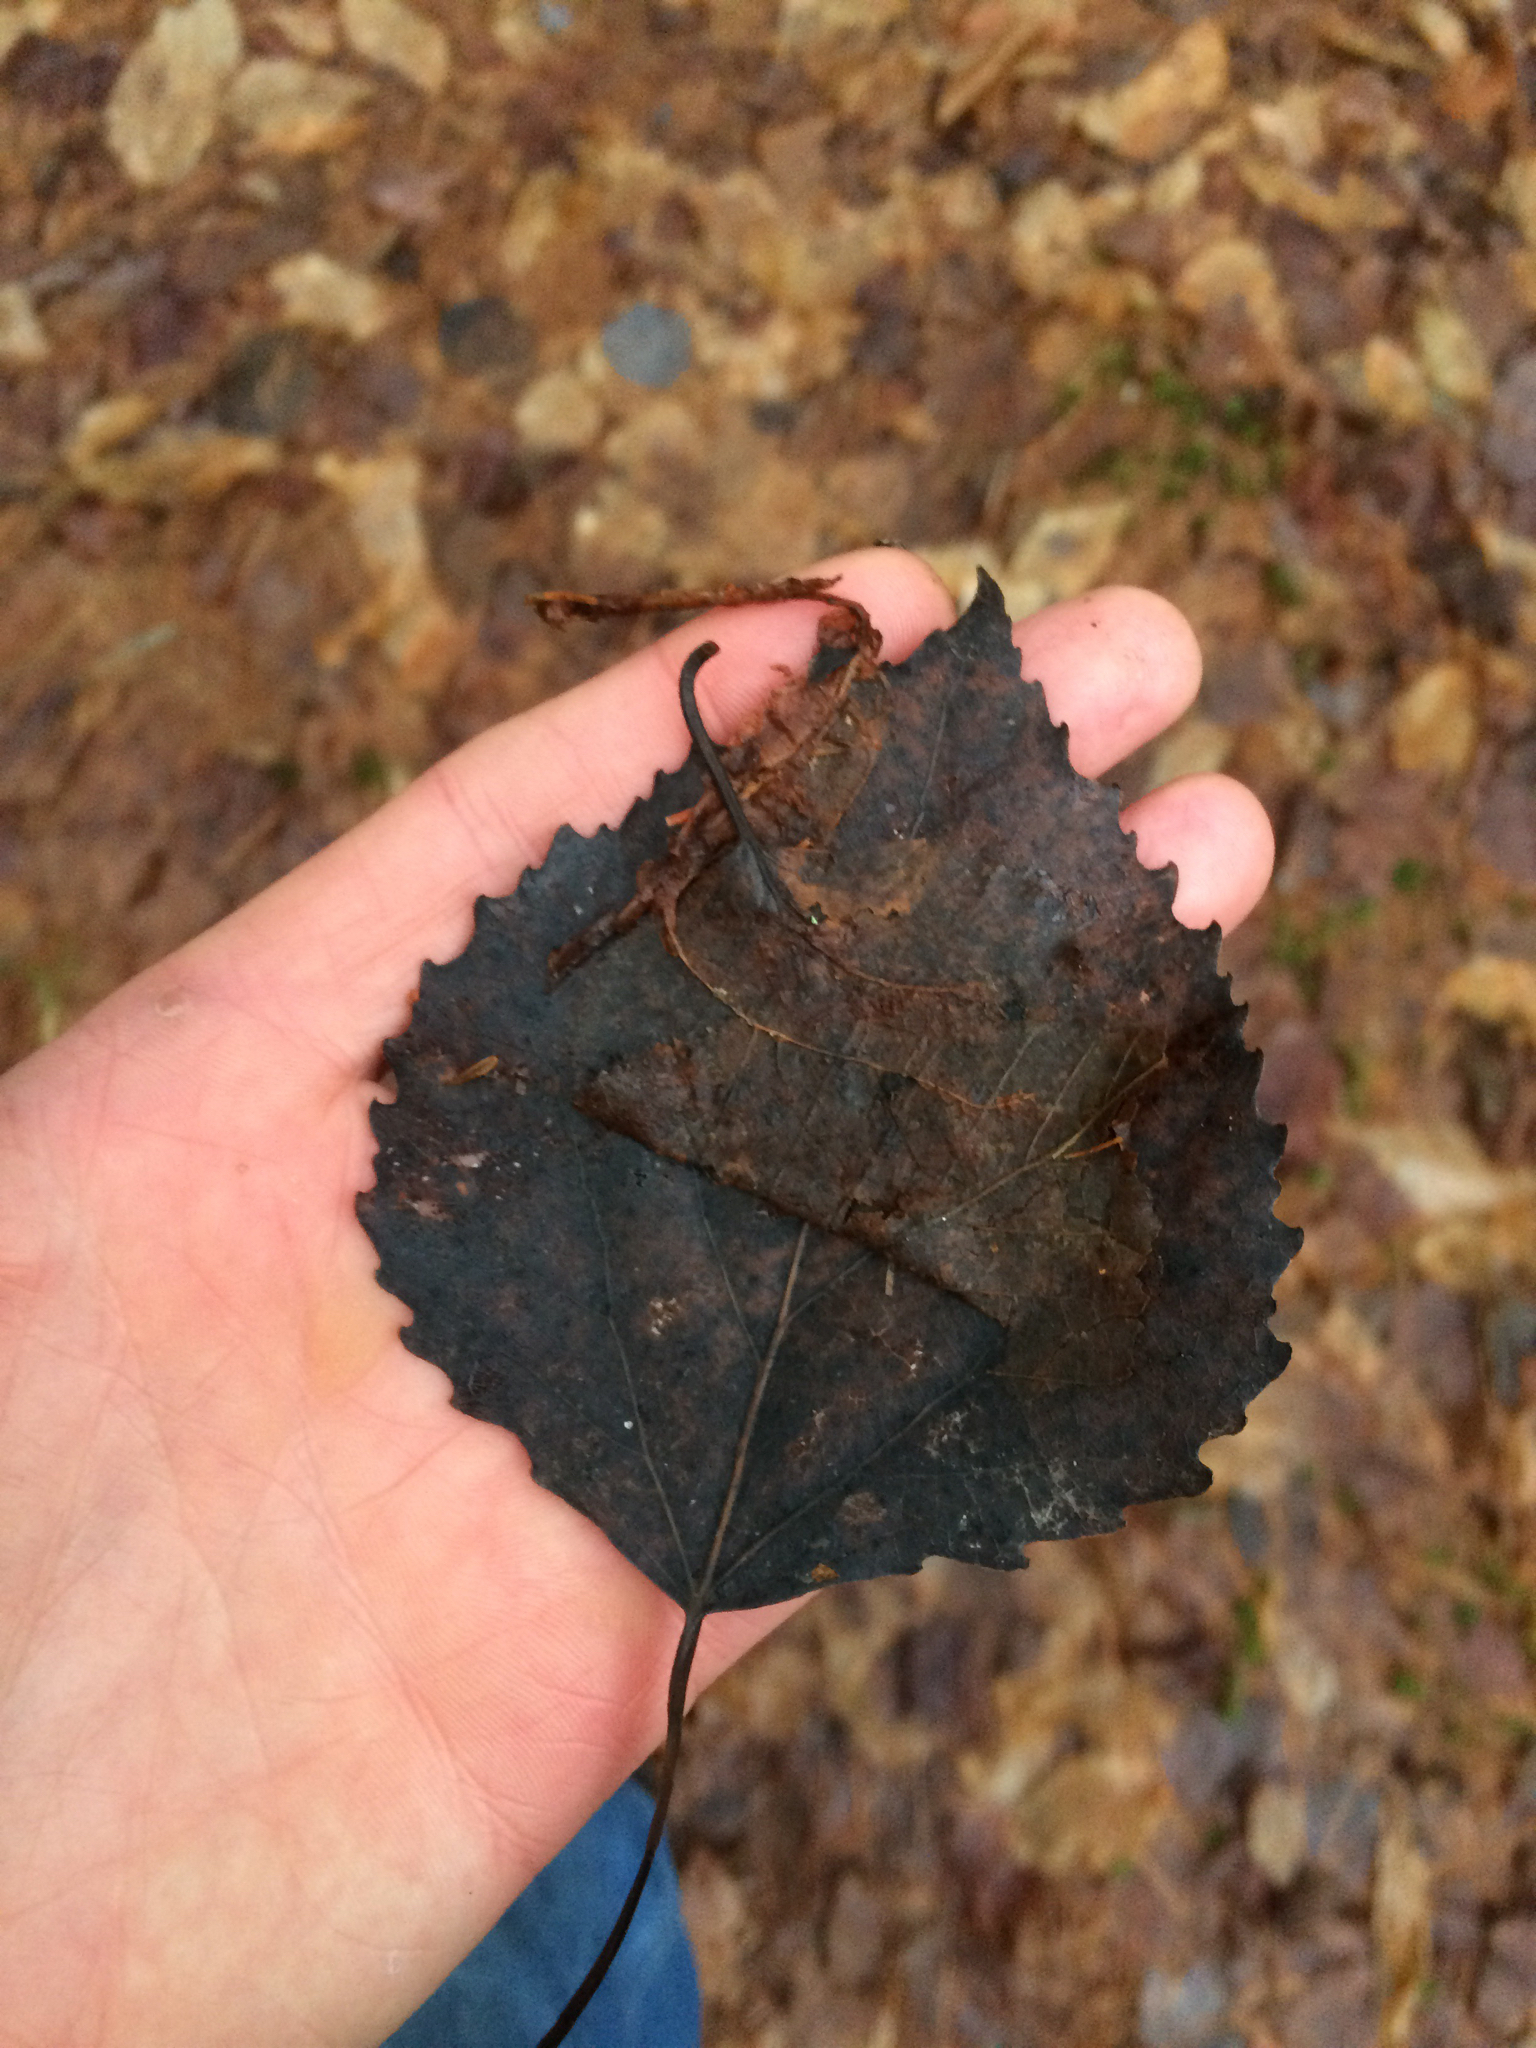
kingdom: Plantae
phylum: Tracheophyta
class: Magnoliopsida
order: Malpighiales
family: Salicaceae
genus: Populus
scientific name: Populus grandidentata
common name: Bigtooth aspen
